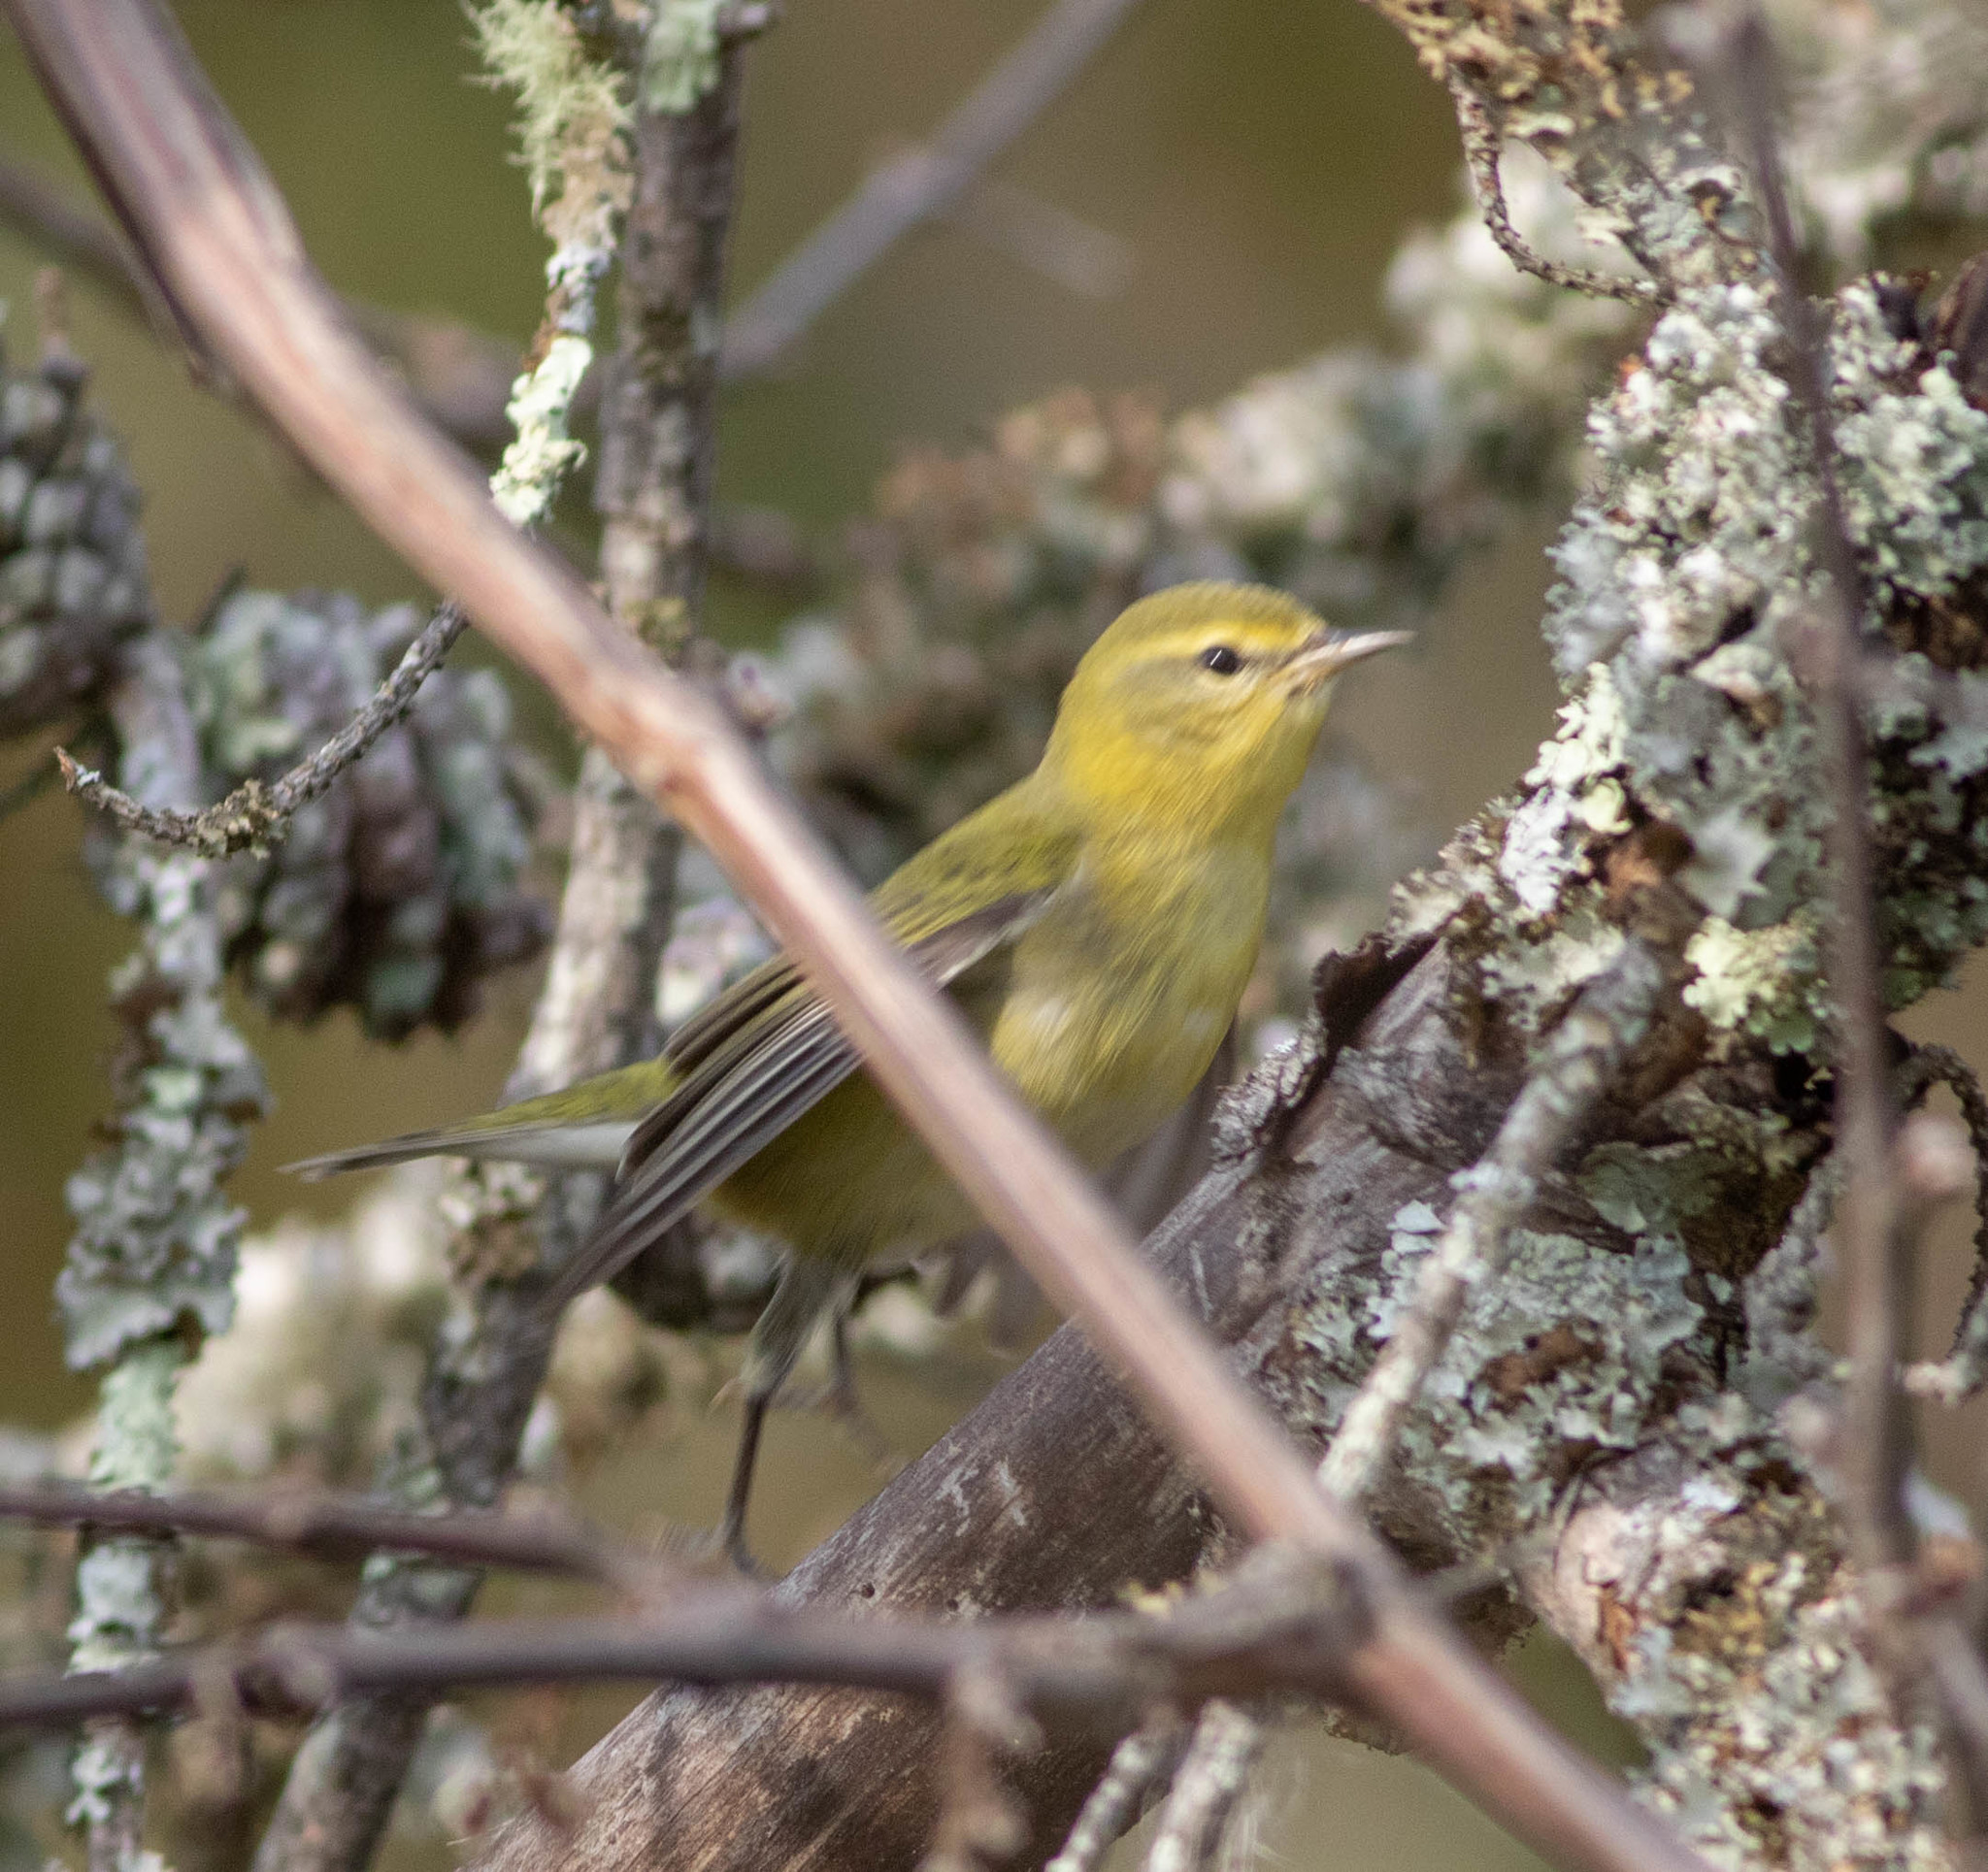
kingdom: Animalia
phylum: Chordata
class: Aves
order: Passeriformes
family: Parulidae
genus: Leiothlypis
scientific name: Leiothlypis peregrina
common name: Tennessee warbler
